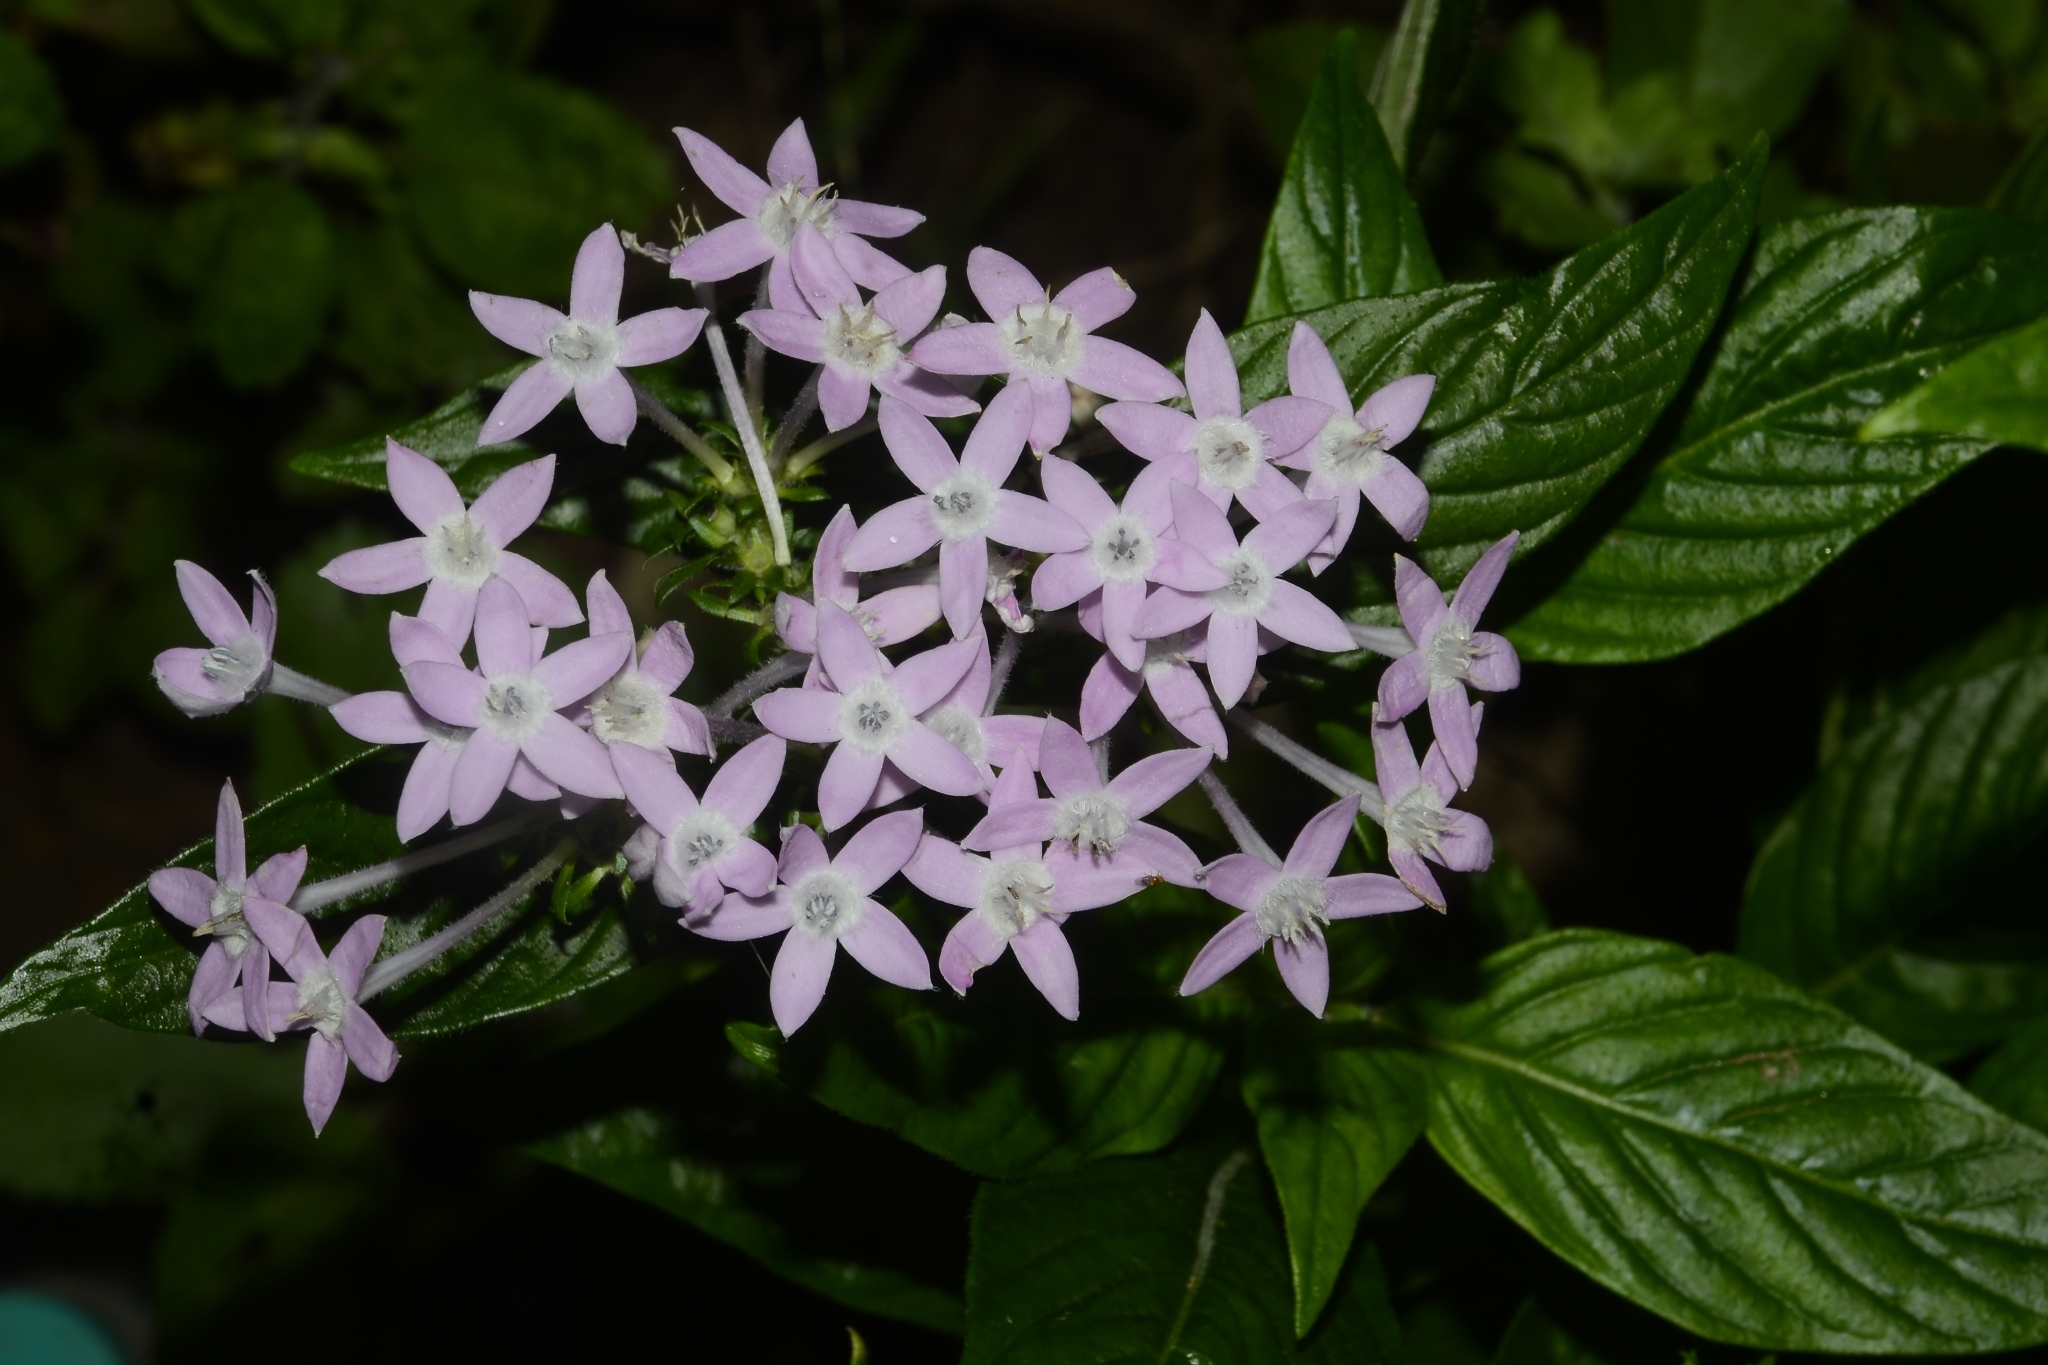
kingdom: Plantae
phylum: Tracheophyta
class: Magnoliopsida
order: Gentianales
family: Rubiaceae
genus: Pentas
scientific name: Pentas lanceolata
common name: Egyptian starcluster
